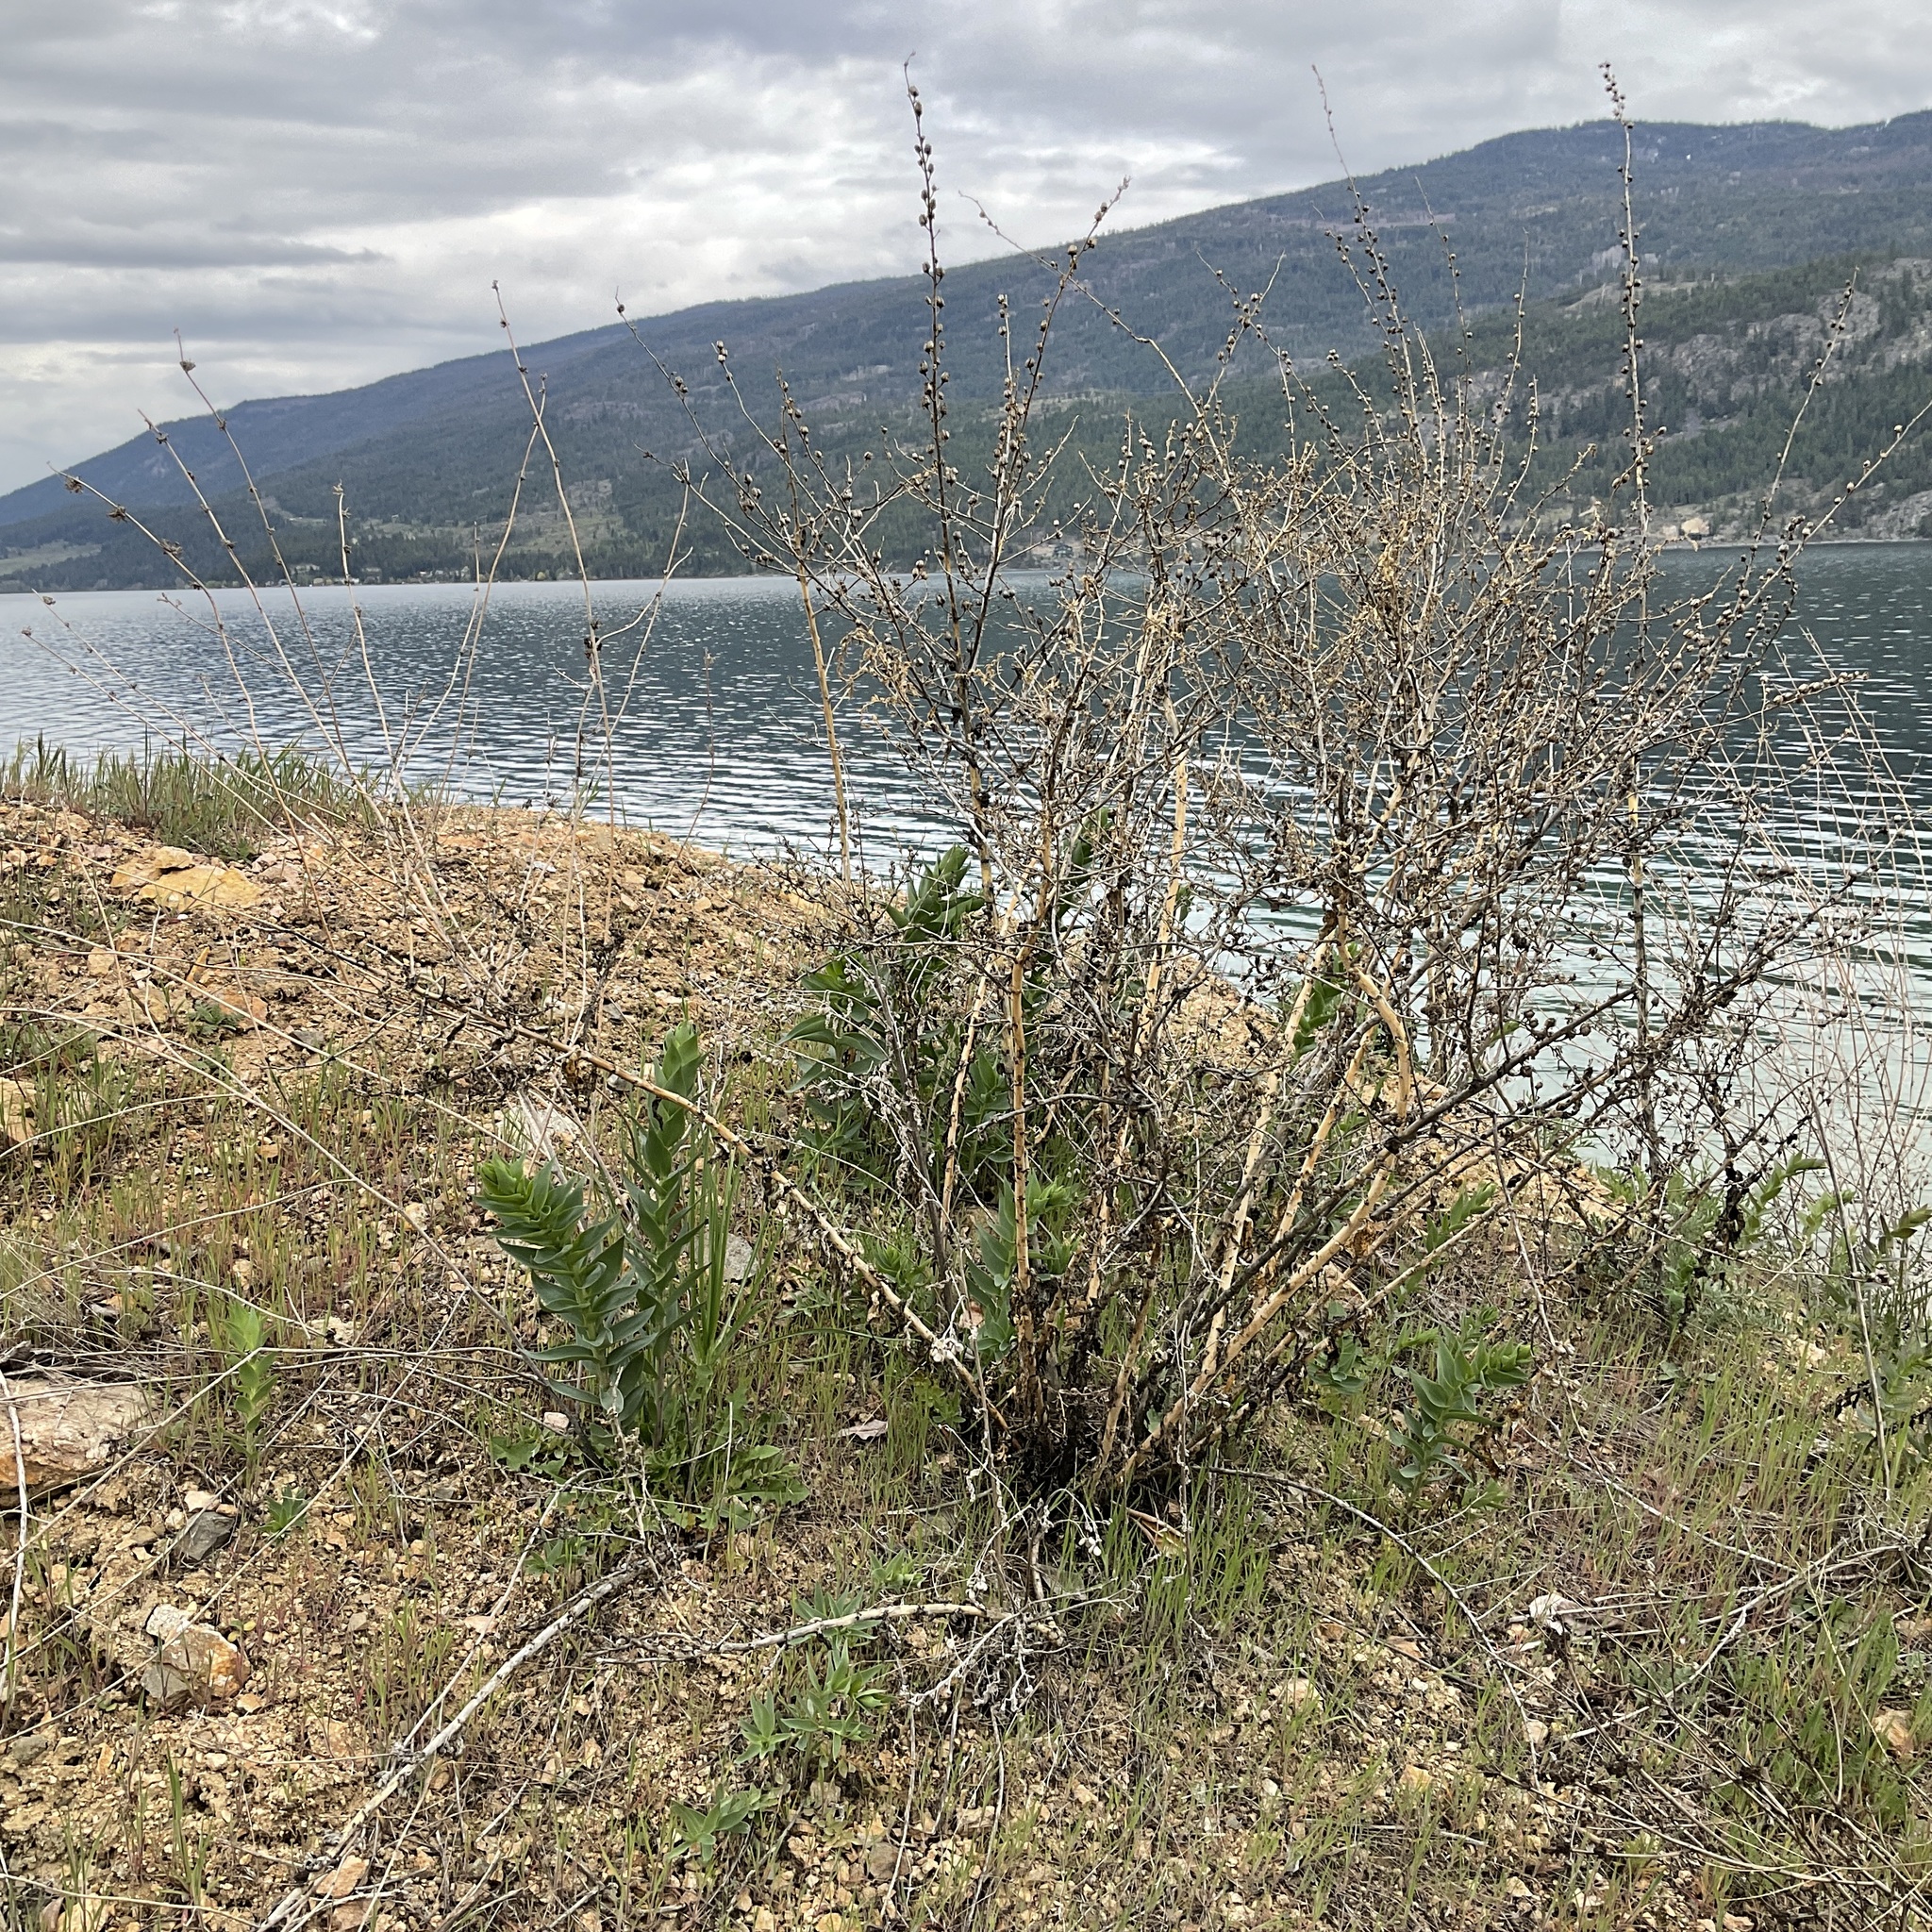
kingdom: Plantae
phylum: Tracheophyta
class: Magnoliopsida
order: Lamiales
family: Plantaginaceae
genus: Linaria
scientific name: Linaria dalmatica
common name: Dalmatian toadflax
